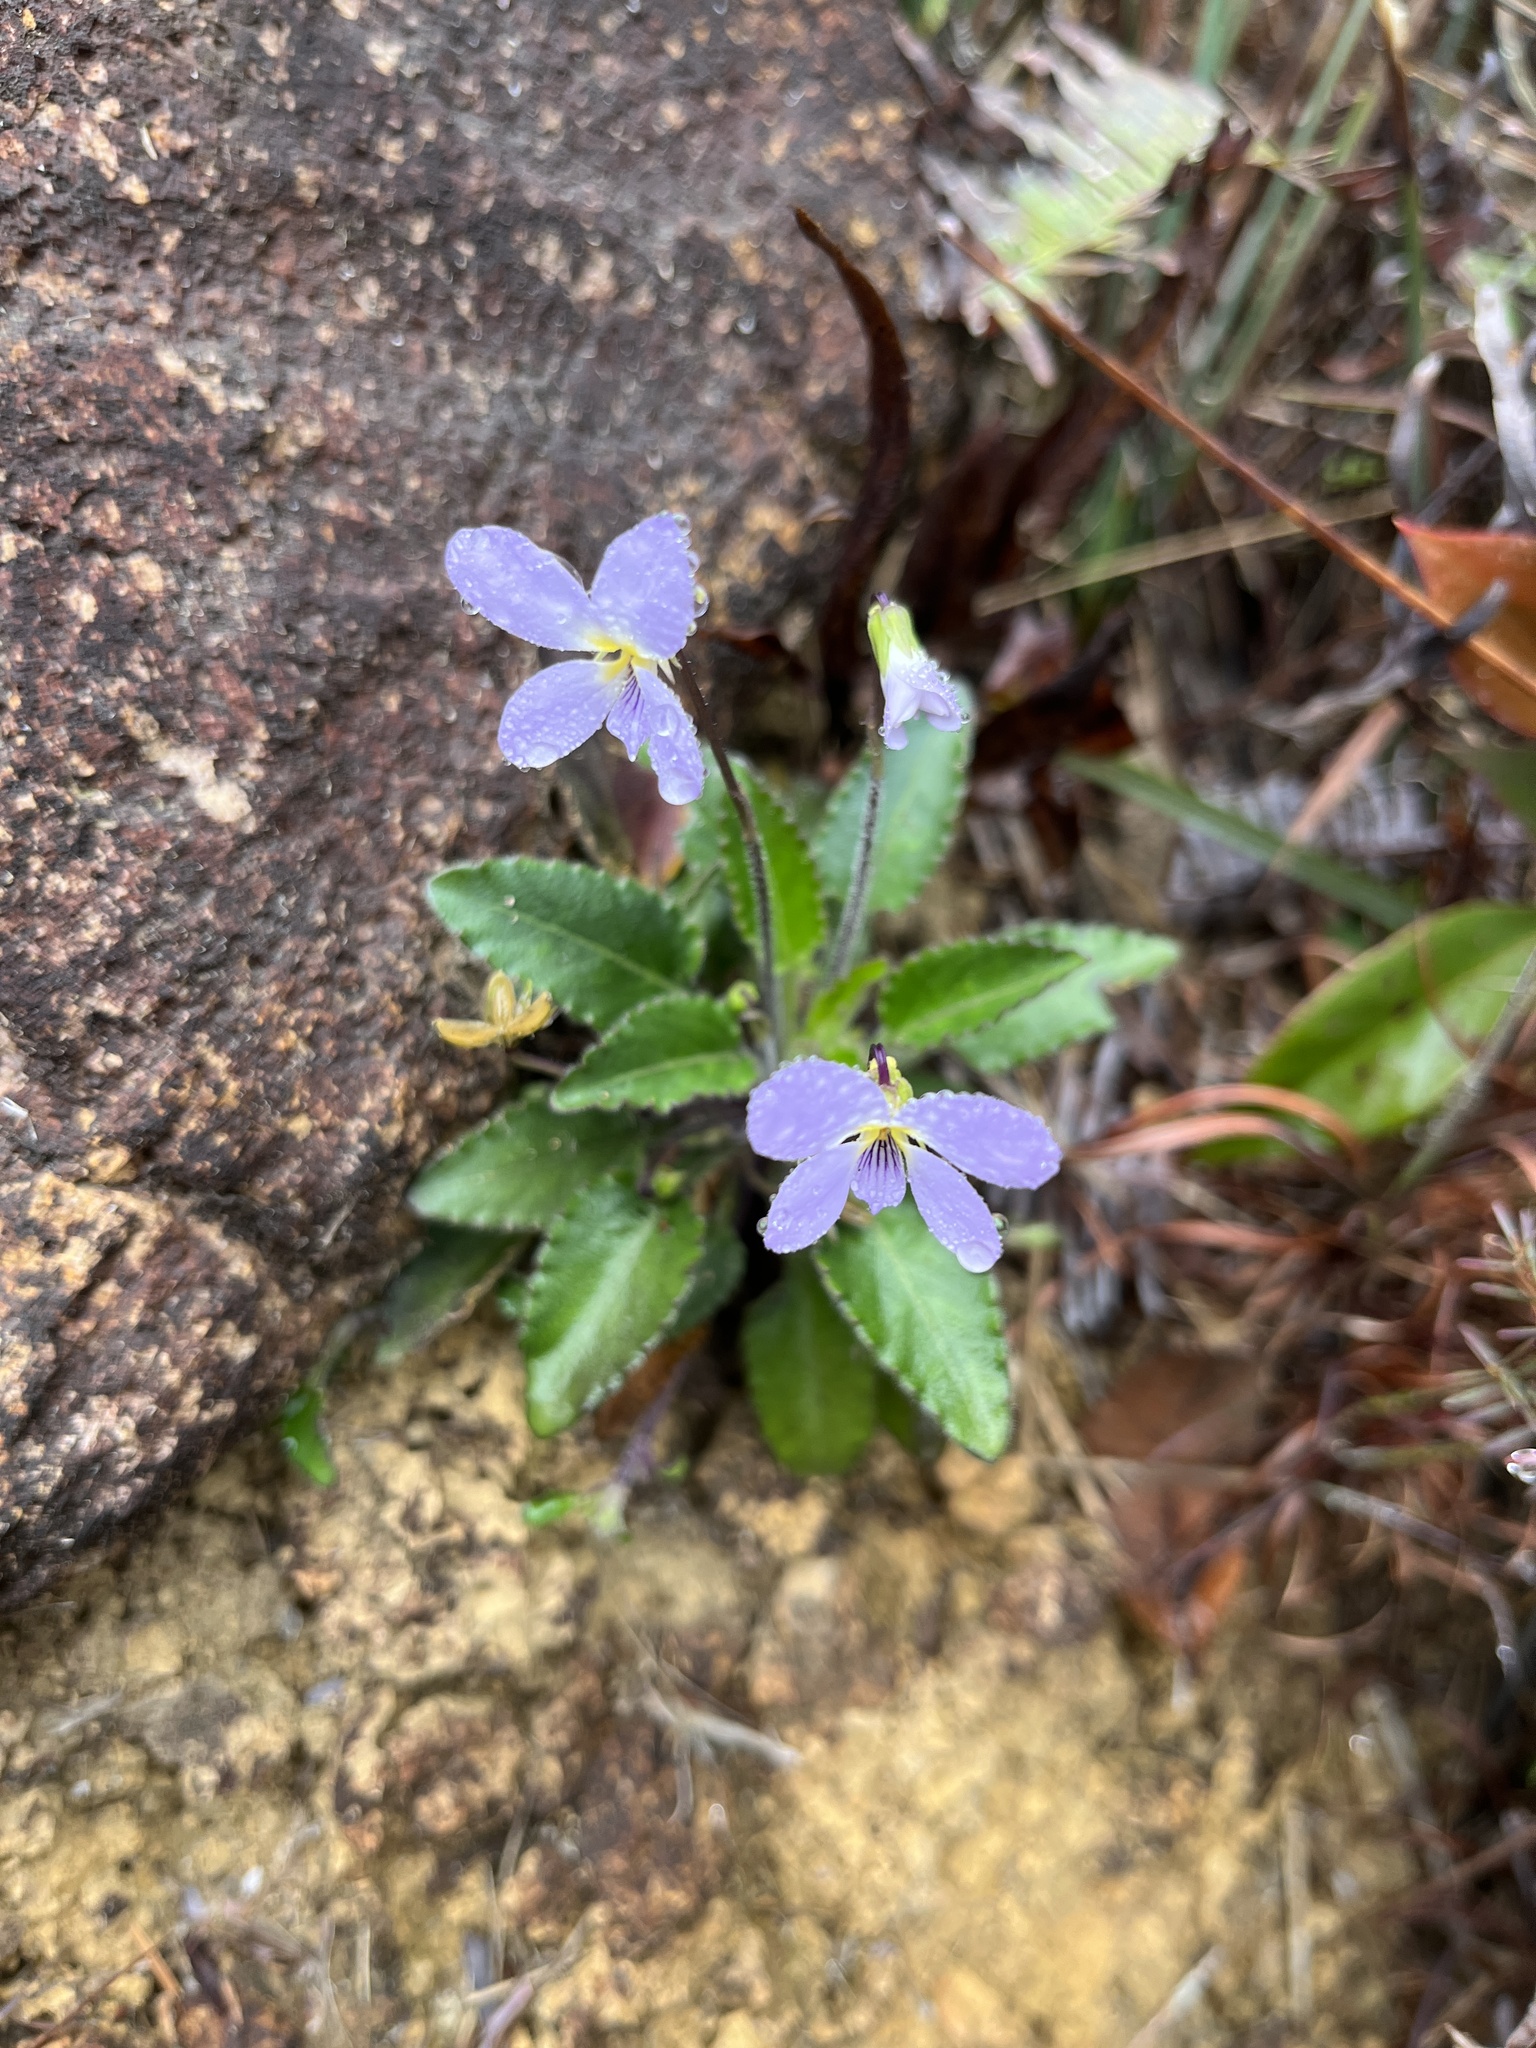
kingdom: Plantae
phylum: Tracheophyta
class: Magnoliopsida
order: Malpighiales
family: Violaceae
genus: Viola
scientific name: Viola diffusa
